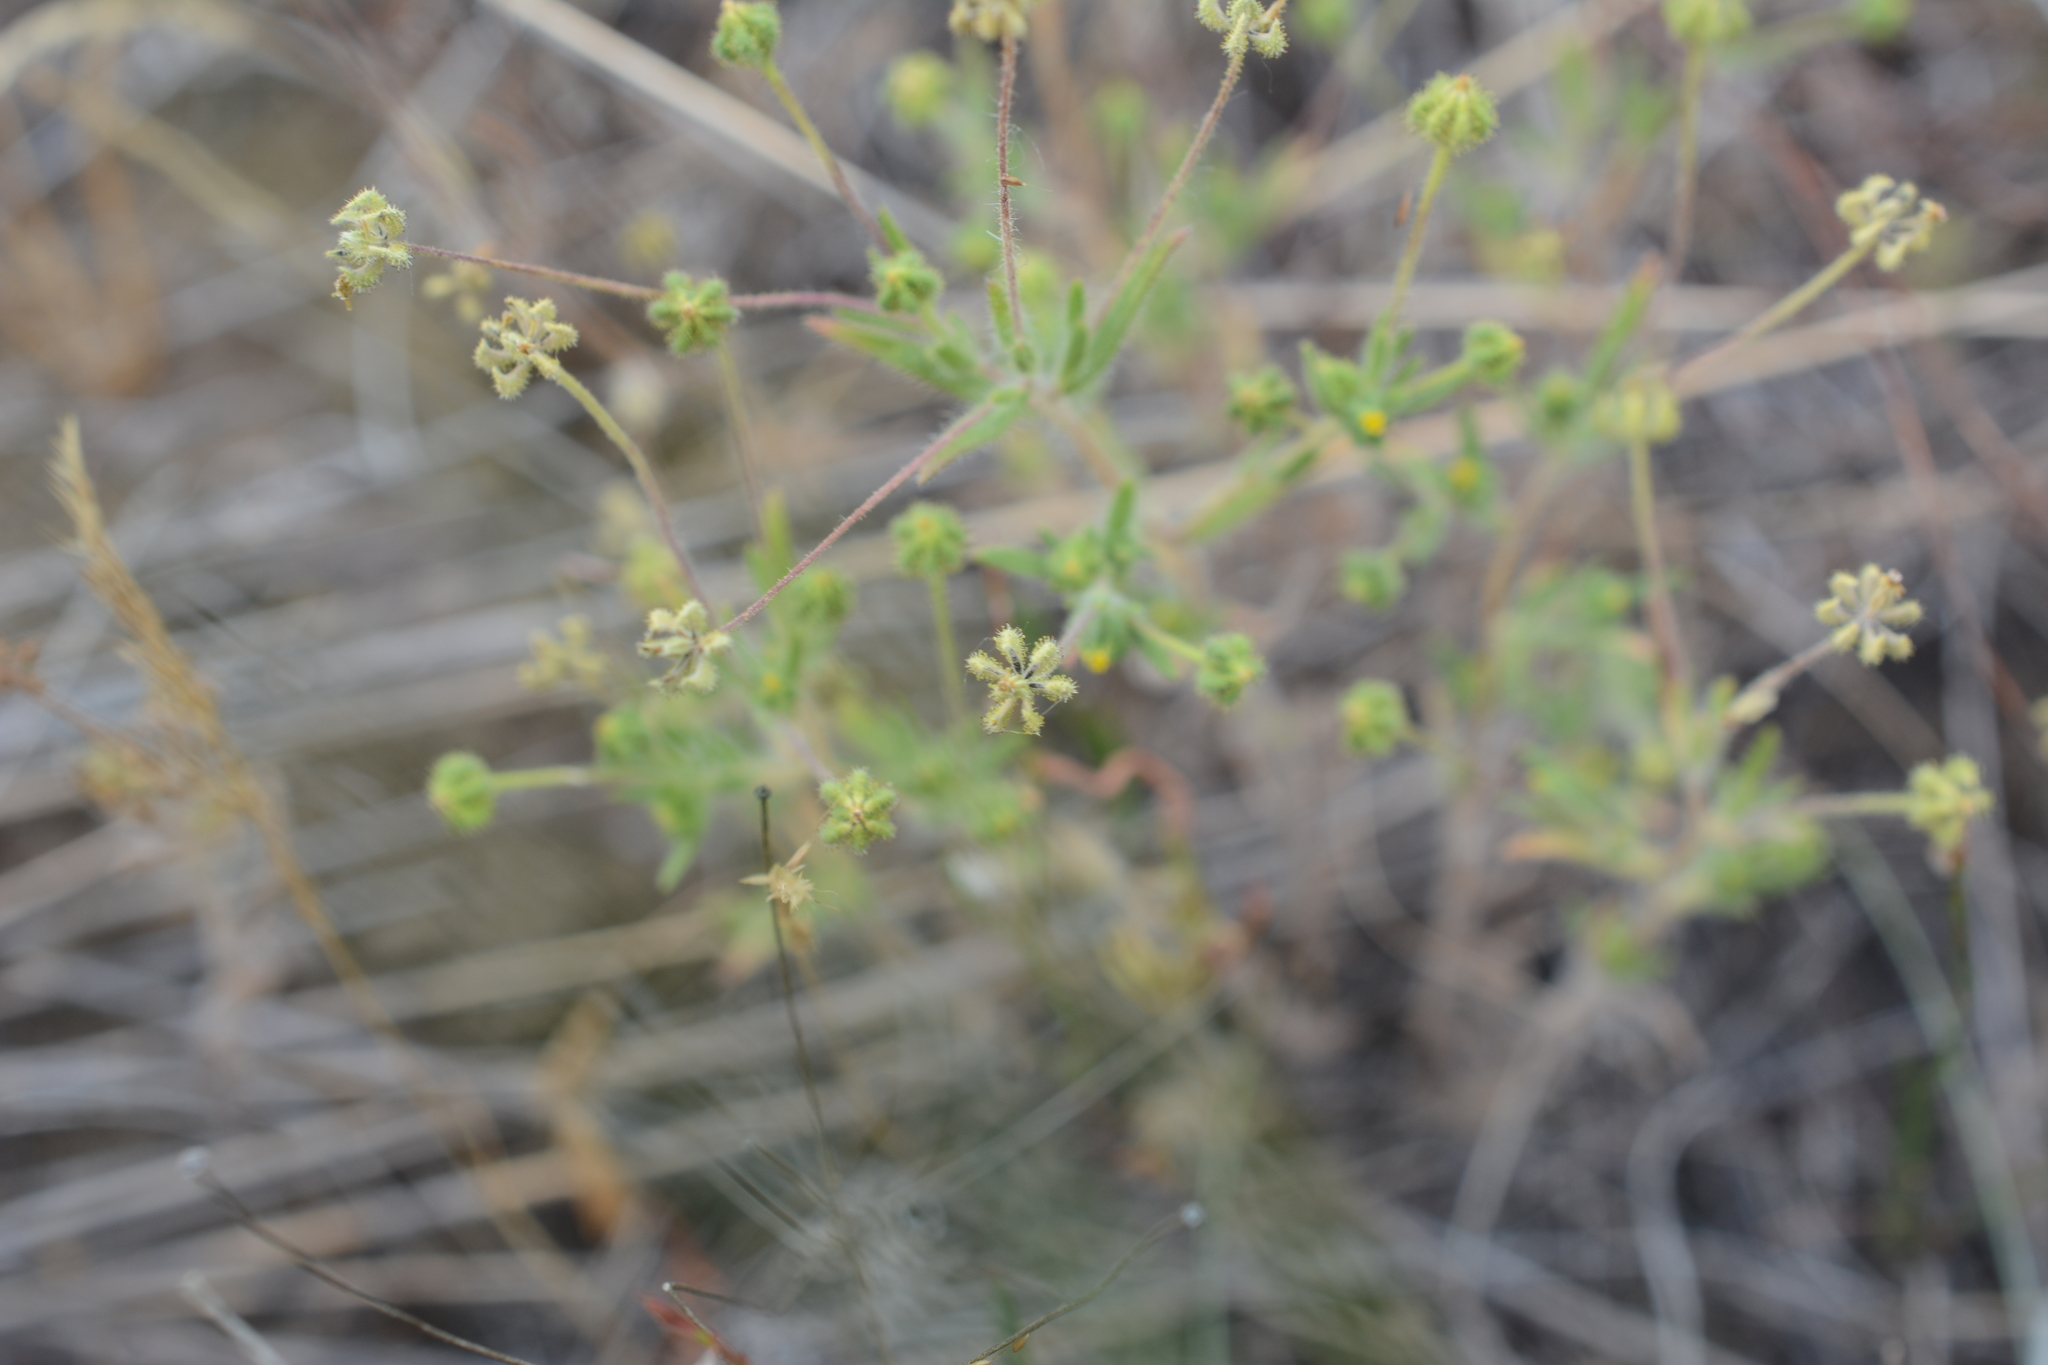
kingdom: Plantae
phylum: Tracheophyta
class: Magnoliopsida
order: Asterales
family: Asteraceae
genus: Madia
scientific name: Madia exigua
